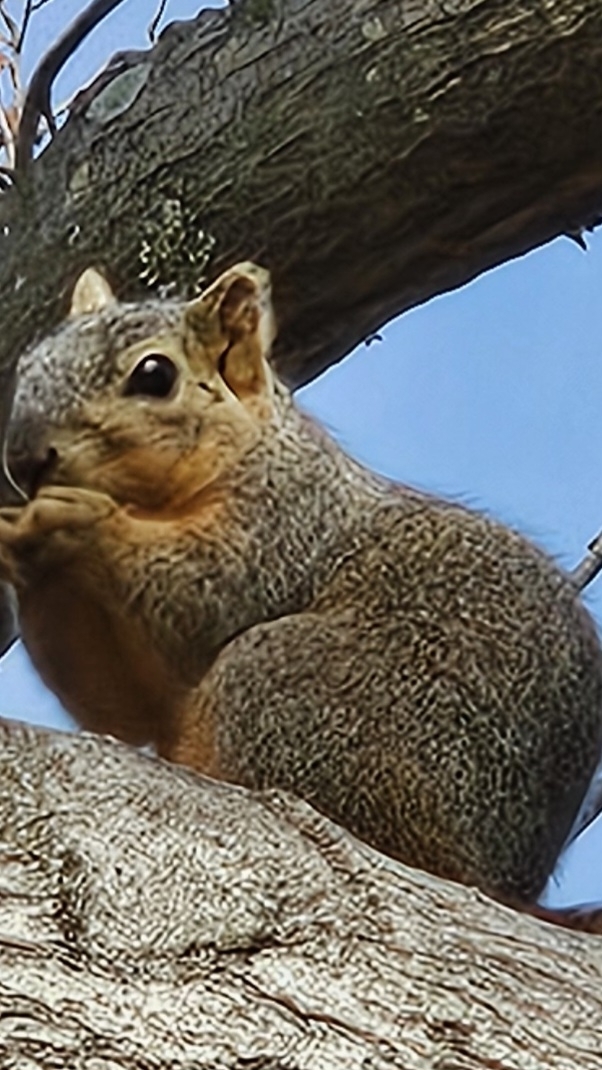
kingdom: Animalia
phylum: Chordata
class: Mammalia
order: Rodentia
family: Sciuridae
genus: Sciurus
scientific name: Sciurus niger
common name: Fox squirrel
